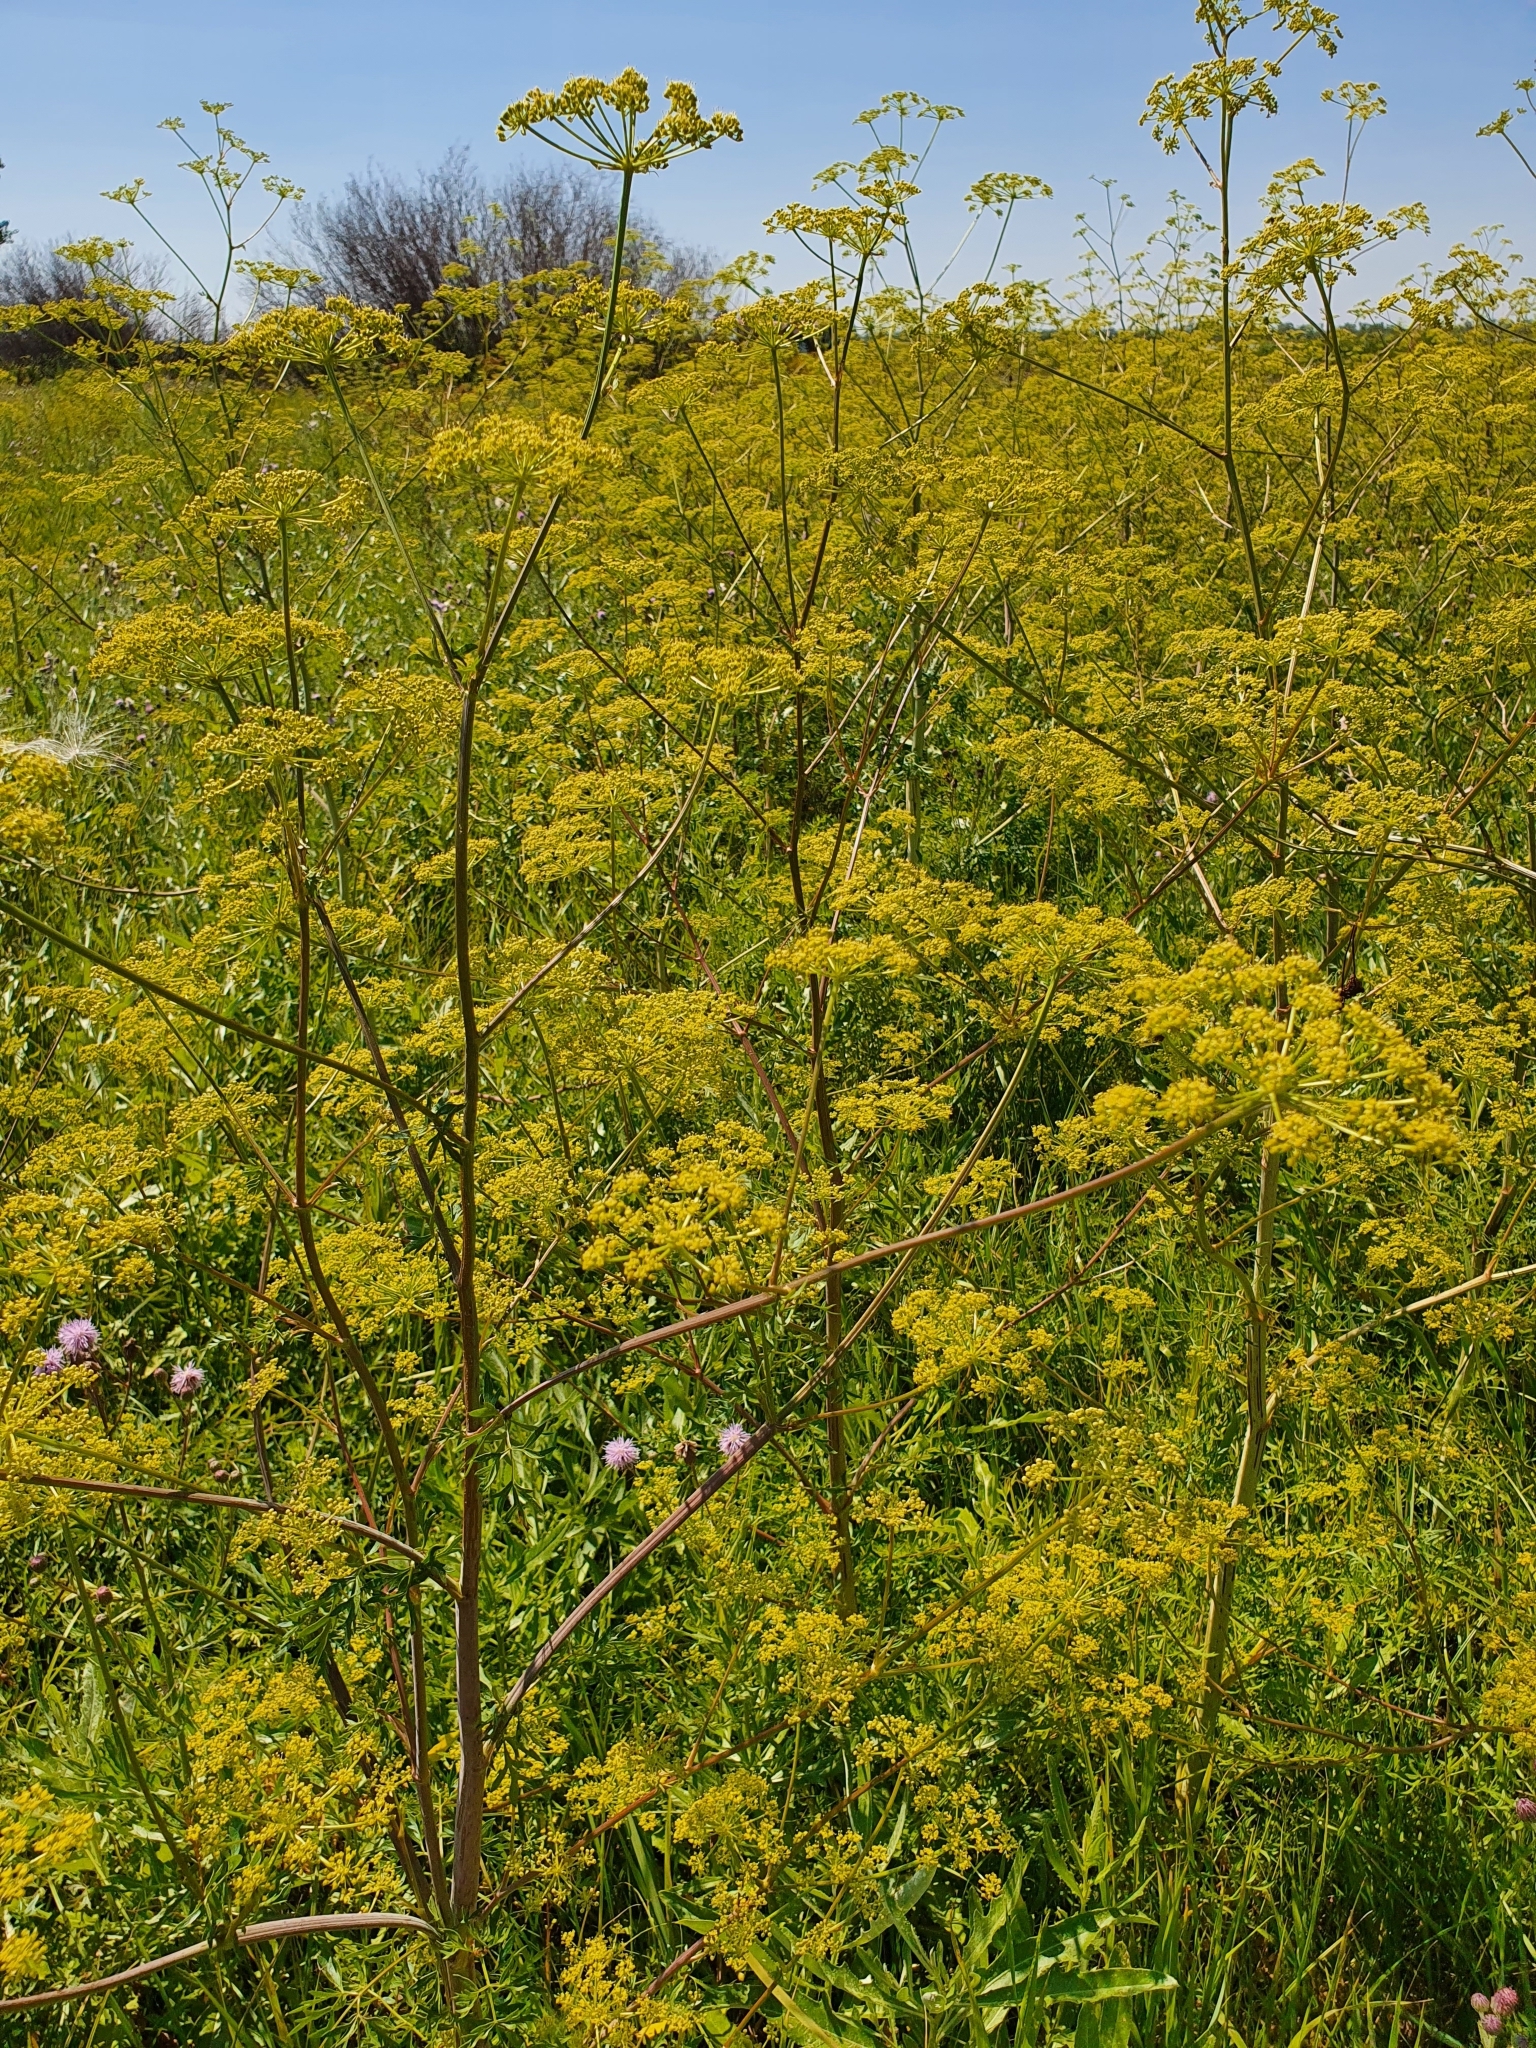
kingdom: Plantae
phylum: Tracheophyta
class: Magnoliopsida
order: Apiales
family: Apiaceae
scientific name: Apiaceae
